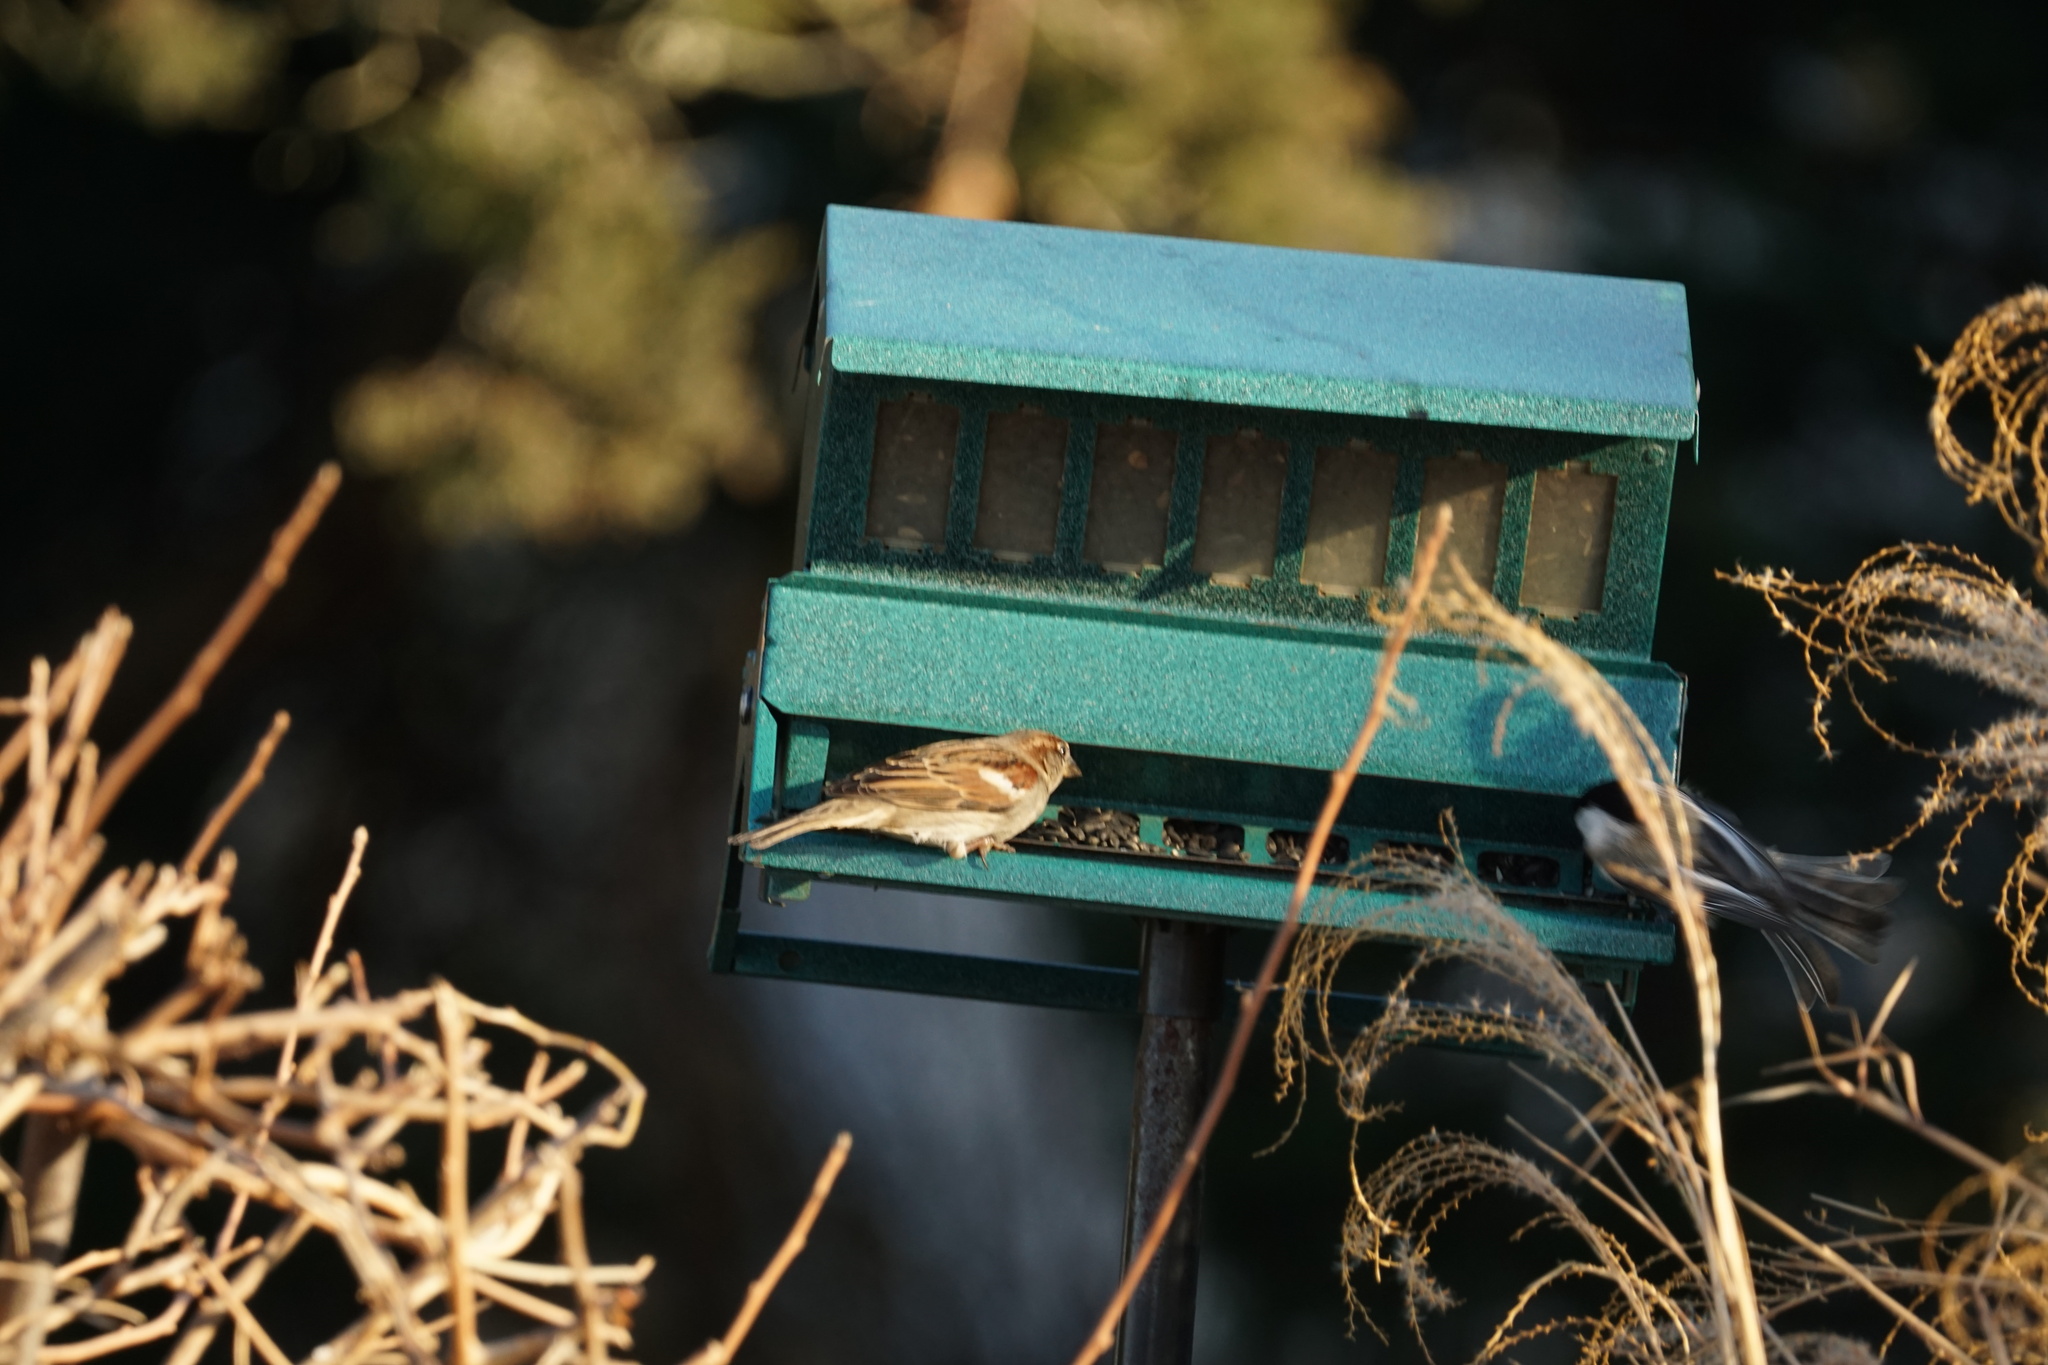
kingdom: Animalia
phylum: Chordata
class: Aves
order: Passeriformes
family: Passeridae
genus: Passer
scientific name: Passer domesticus
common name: House sparrow
